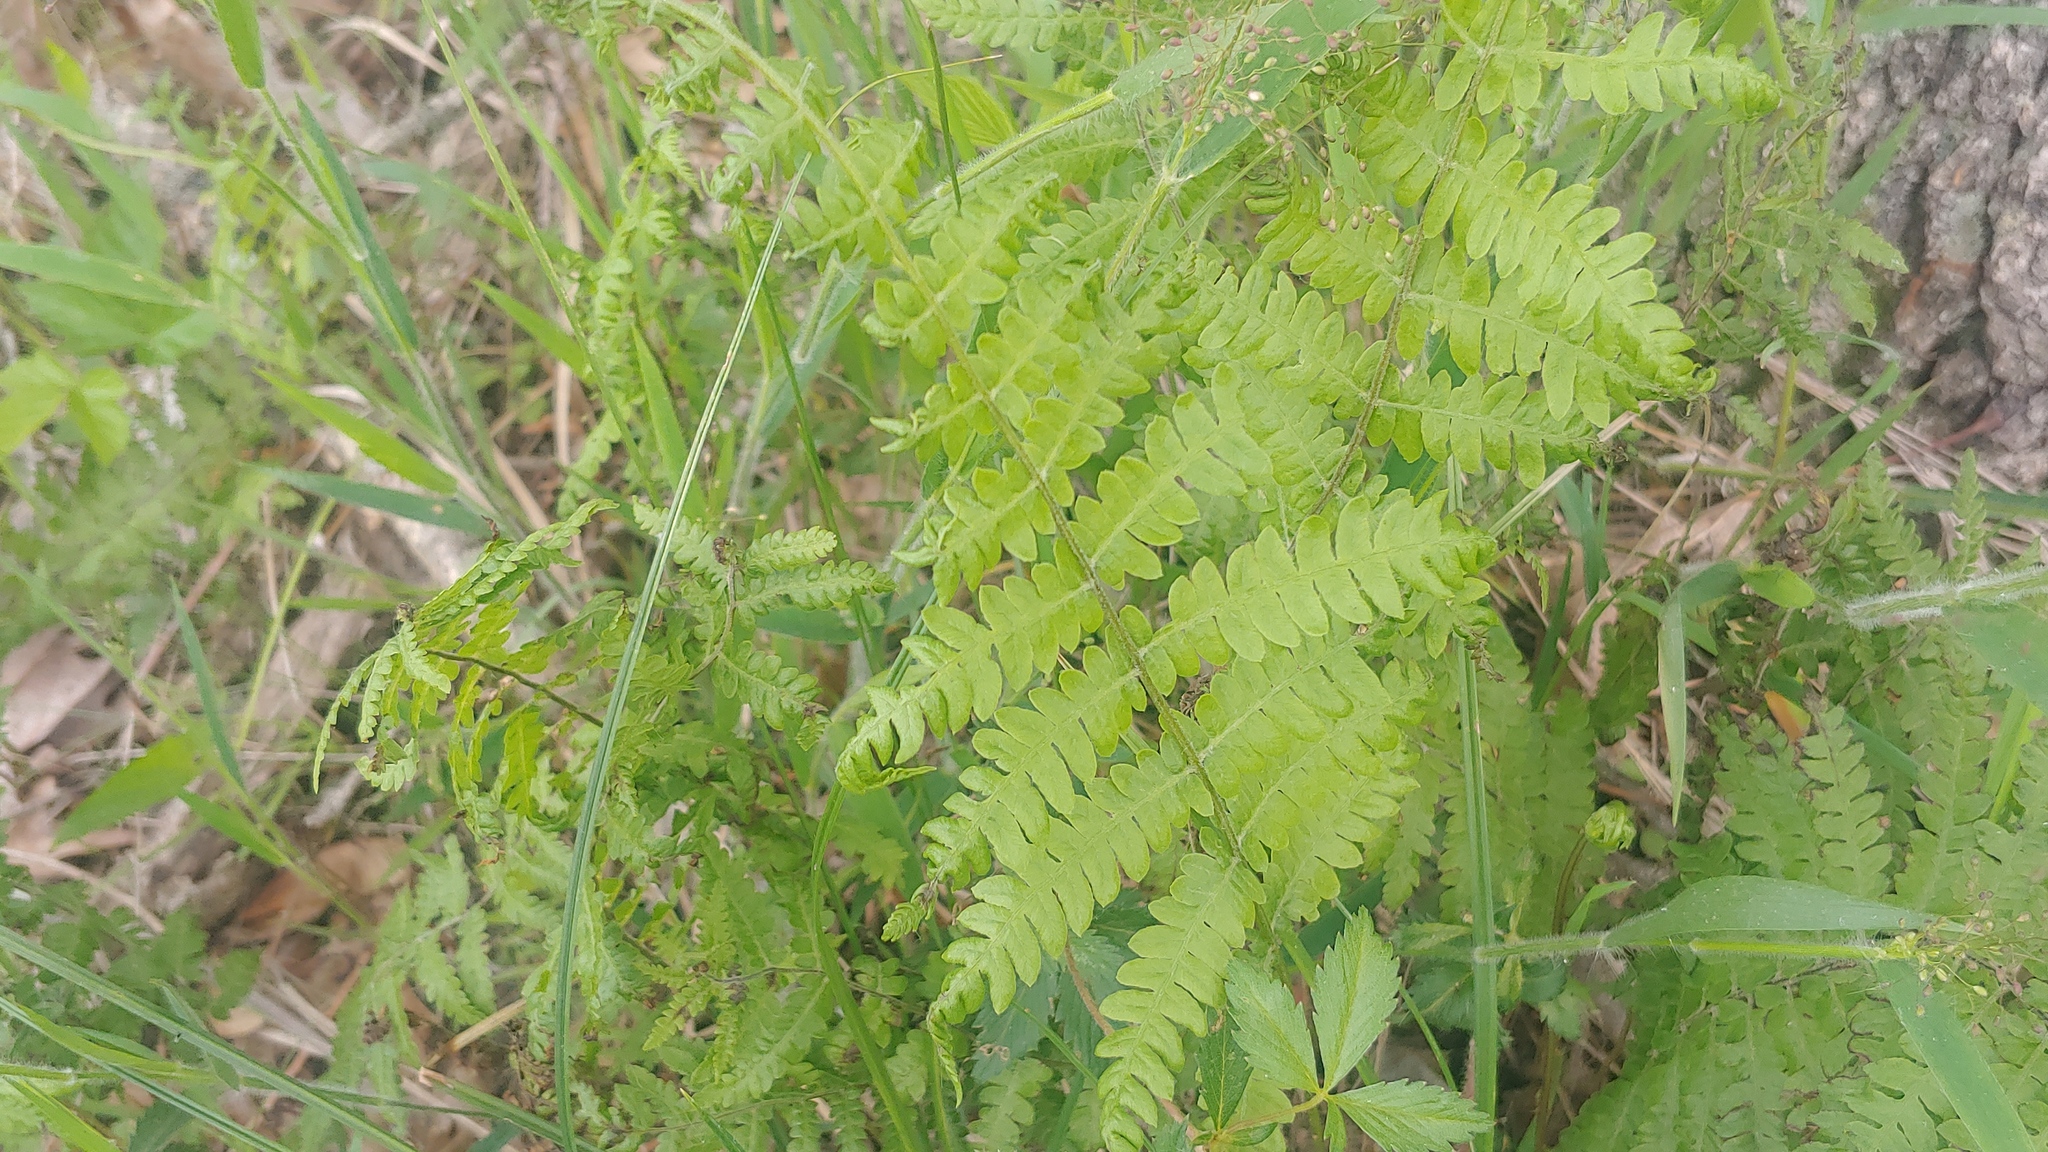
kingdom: Plantae
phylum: Tracheophyta
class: Polypodiopsida
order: Polypodiales
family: Thelypteridaceae
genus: Thelypteris
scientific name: Thelypteris palustris
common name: Marsh fern
